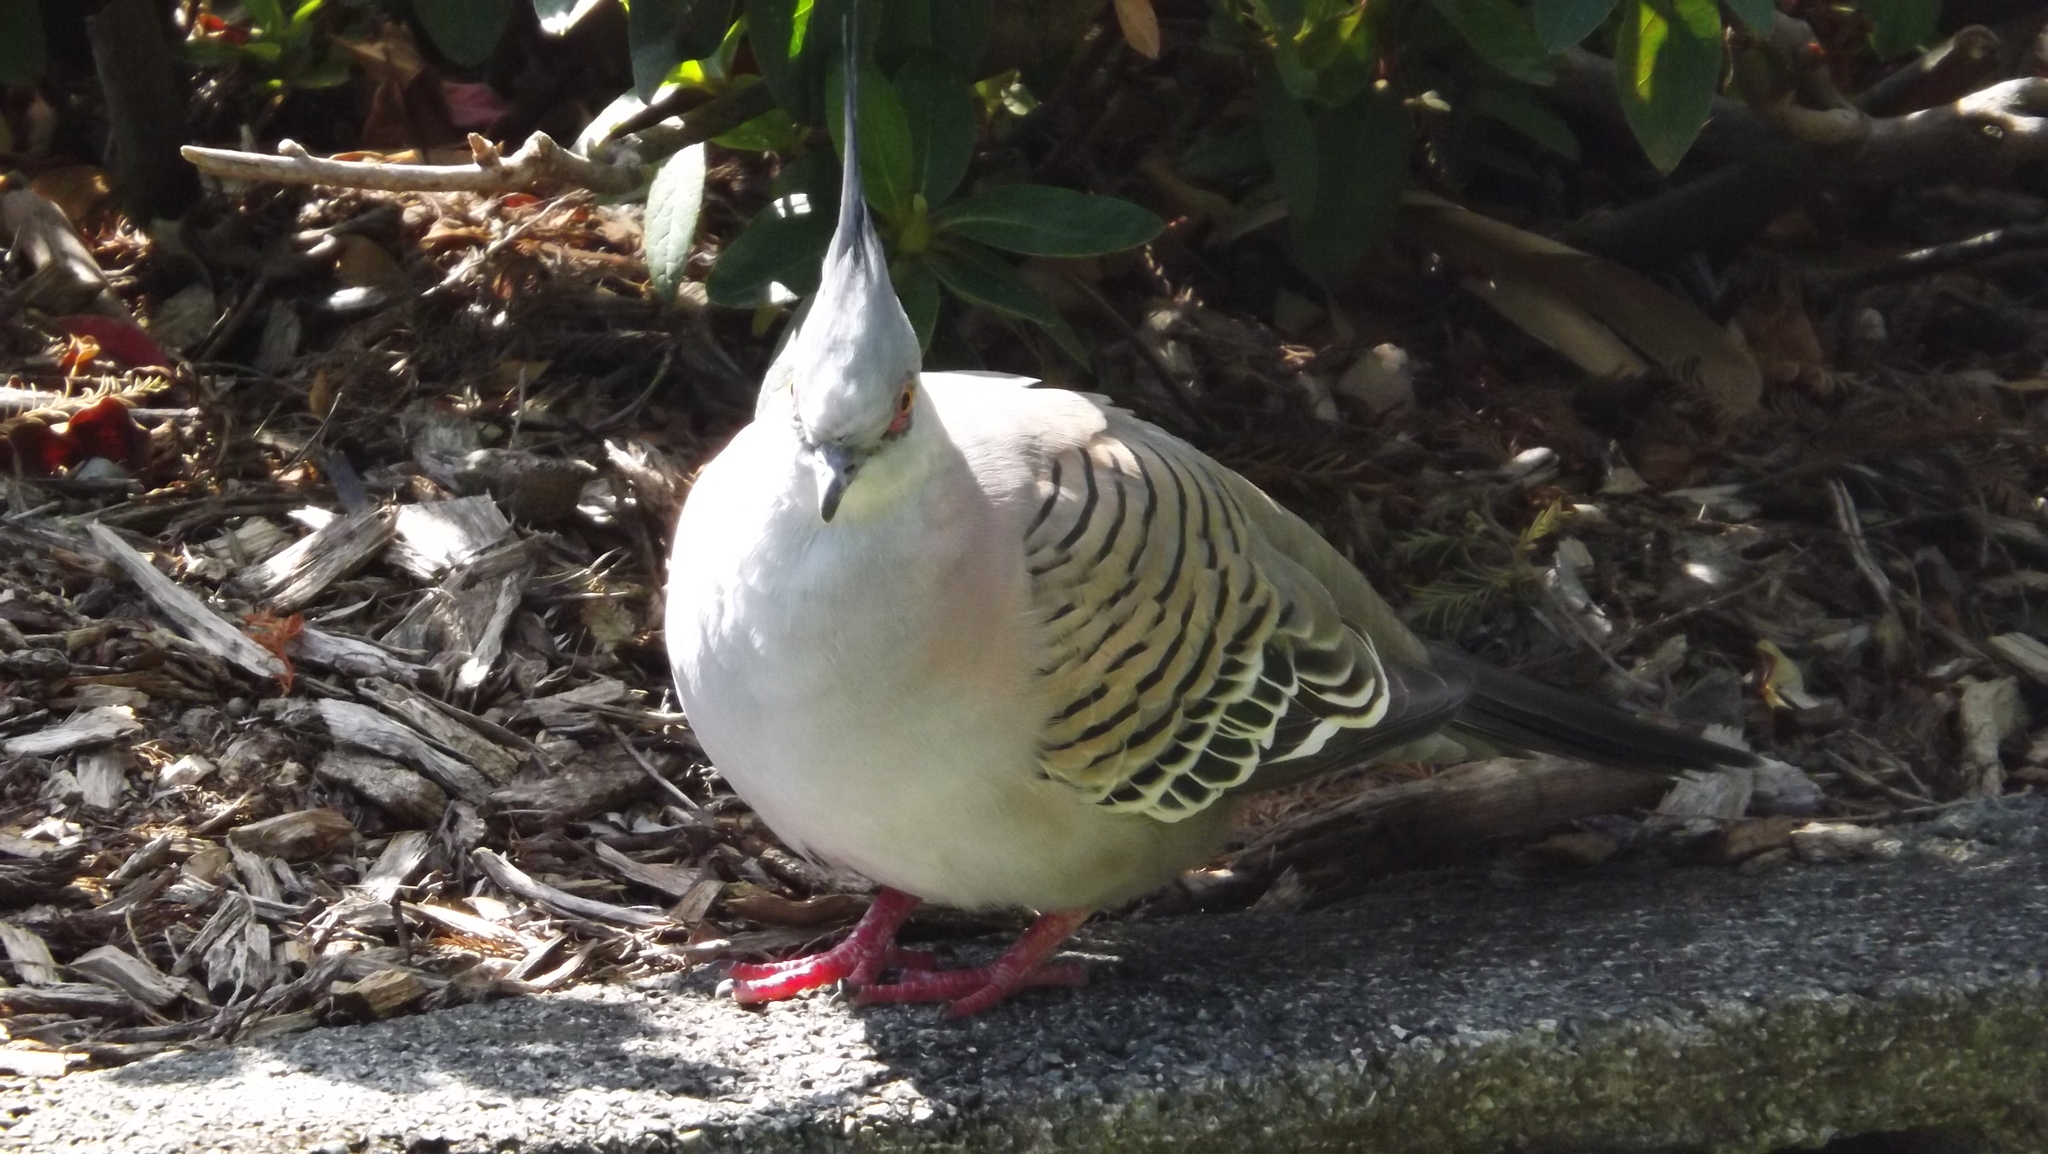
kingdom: Animalia
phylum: Chordata
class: Aves
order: Columbiformes
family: Columbidae
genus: Ocyphaps
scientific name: Ocyphaps lophotes
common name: Crested pigeon
